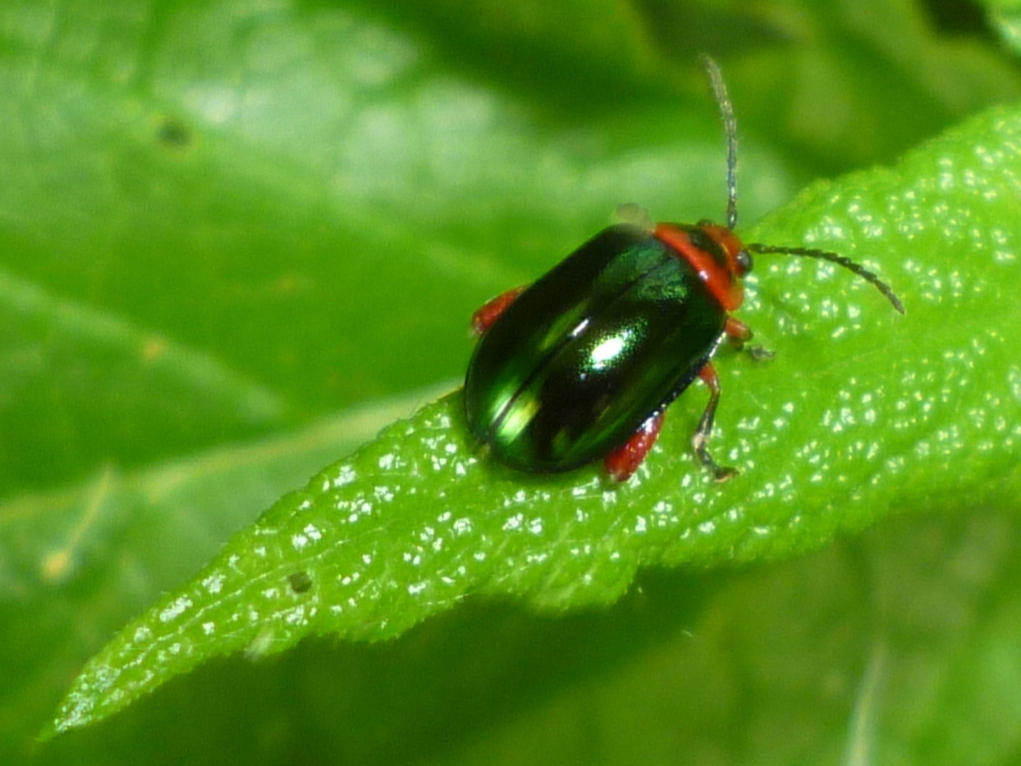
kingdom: Animalia
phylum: Arthropoda
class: Insecta
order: Coleoptera
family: Chrysomelidae
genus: Kuschelina
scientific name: Kuschelina gibbitarsa
